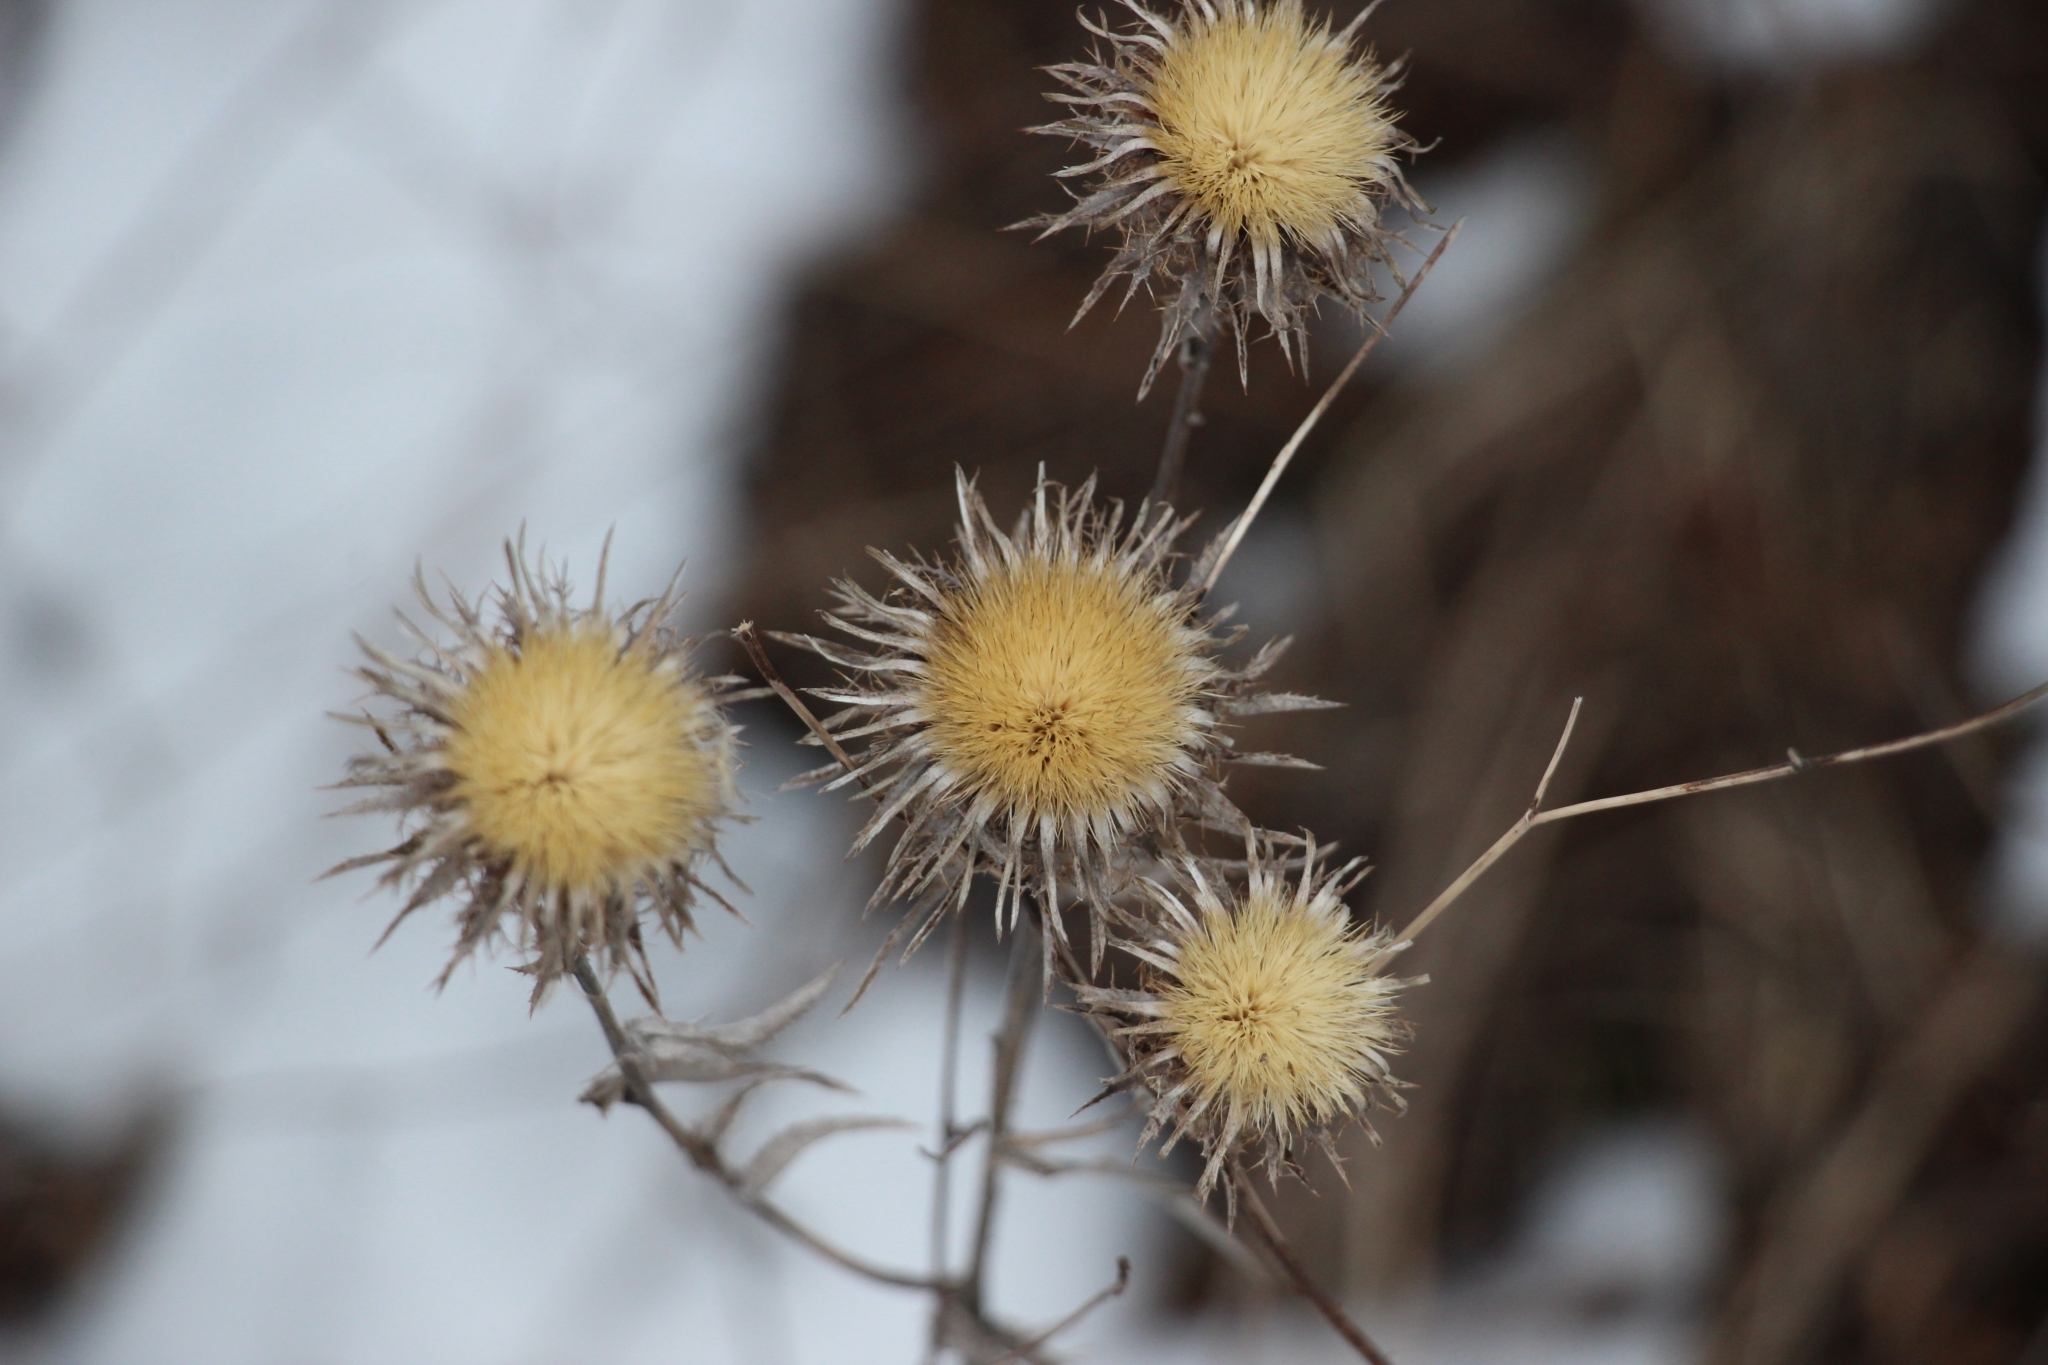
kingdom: Plantae
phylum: Tracheophyta
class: Magnoliopsida
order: Asterales
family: Asteraceae
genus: Carlina
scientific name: Carlina biebersteinii
